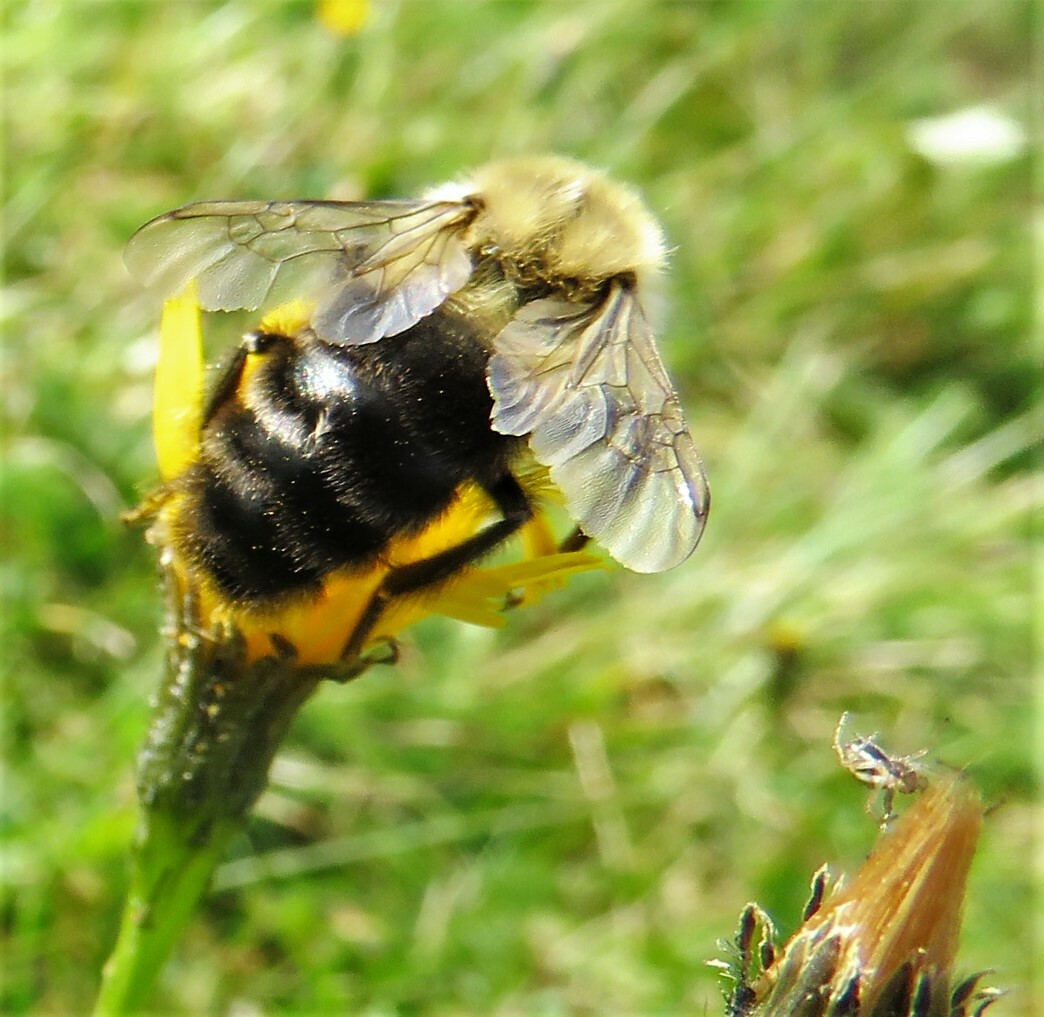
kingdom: Animalia
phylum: Arthropoda
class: Insecta
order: Hymenoptera
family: Apidae
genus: Bombus
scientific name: Bombus impatiens
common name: Common eastern bumble bee
